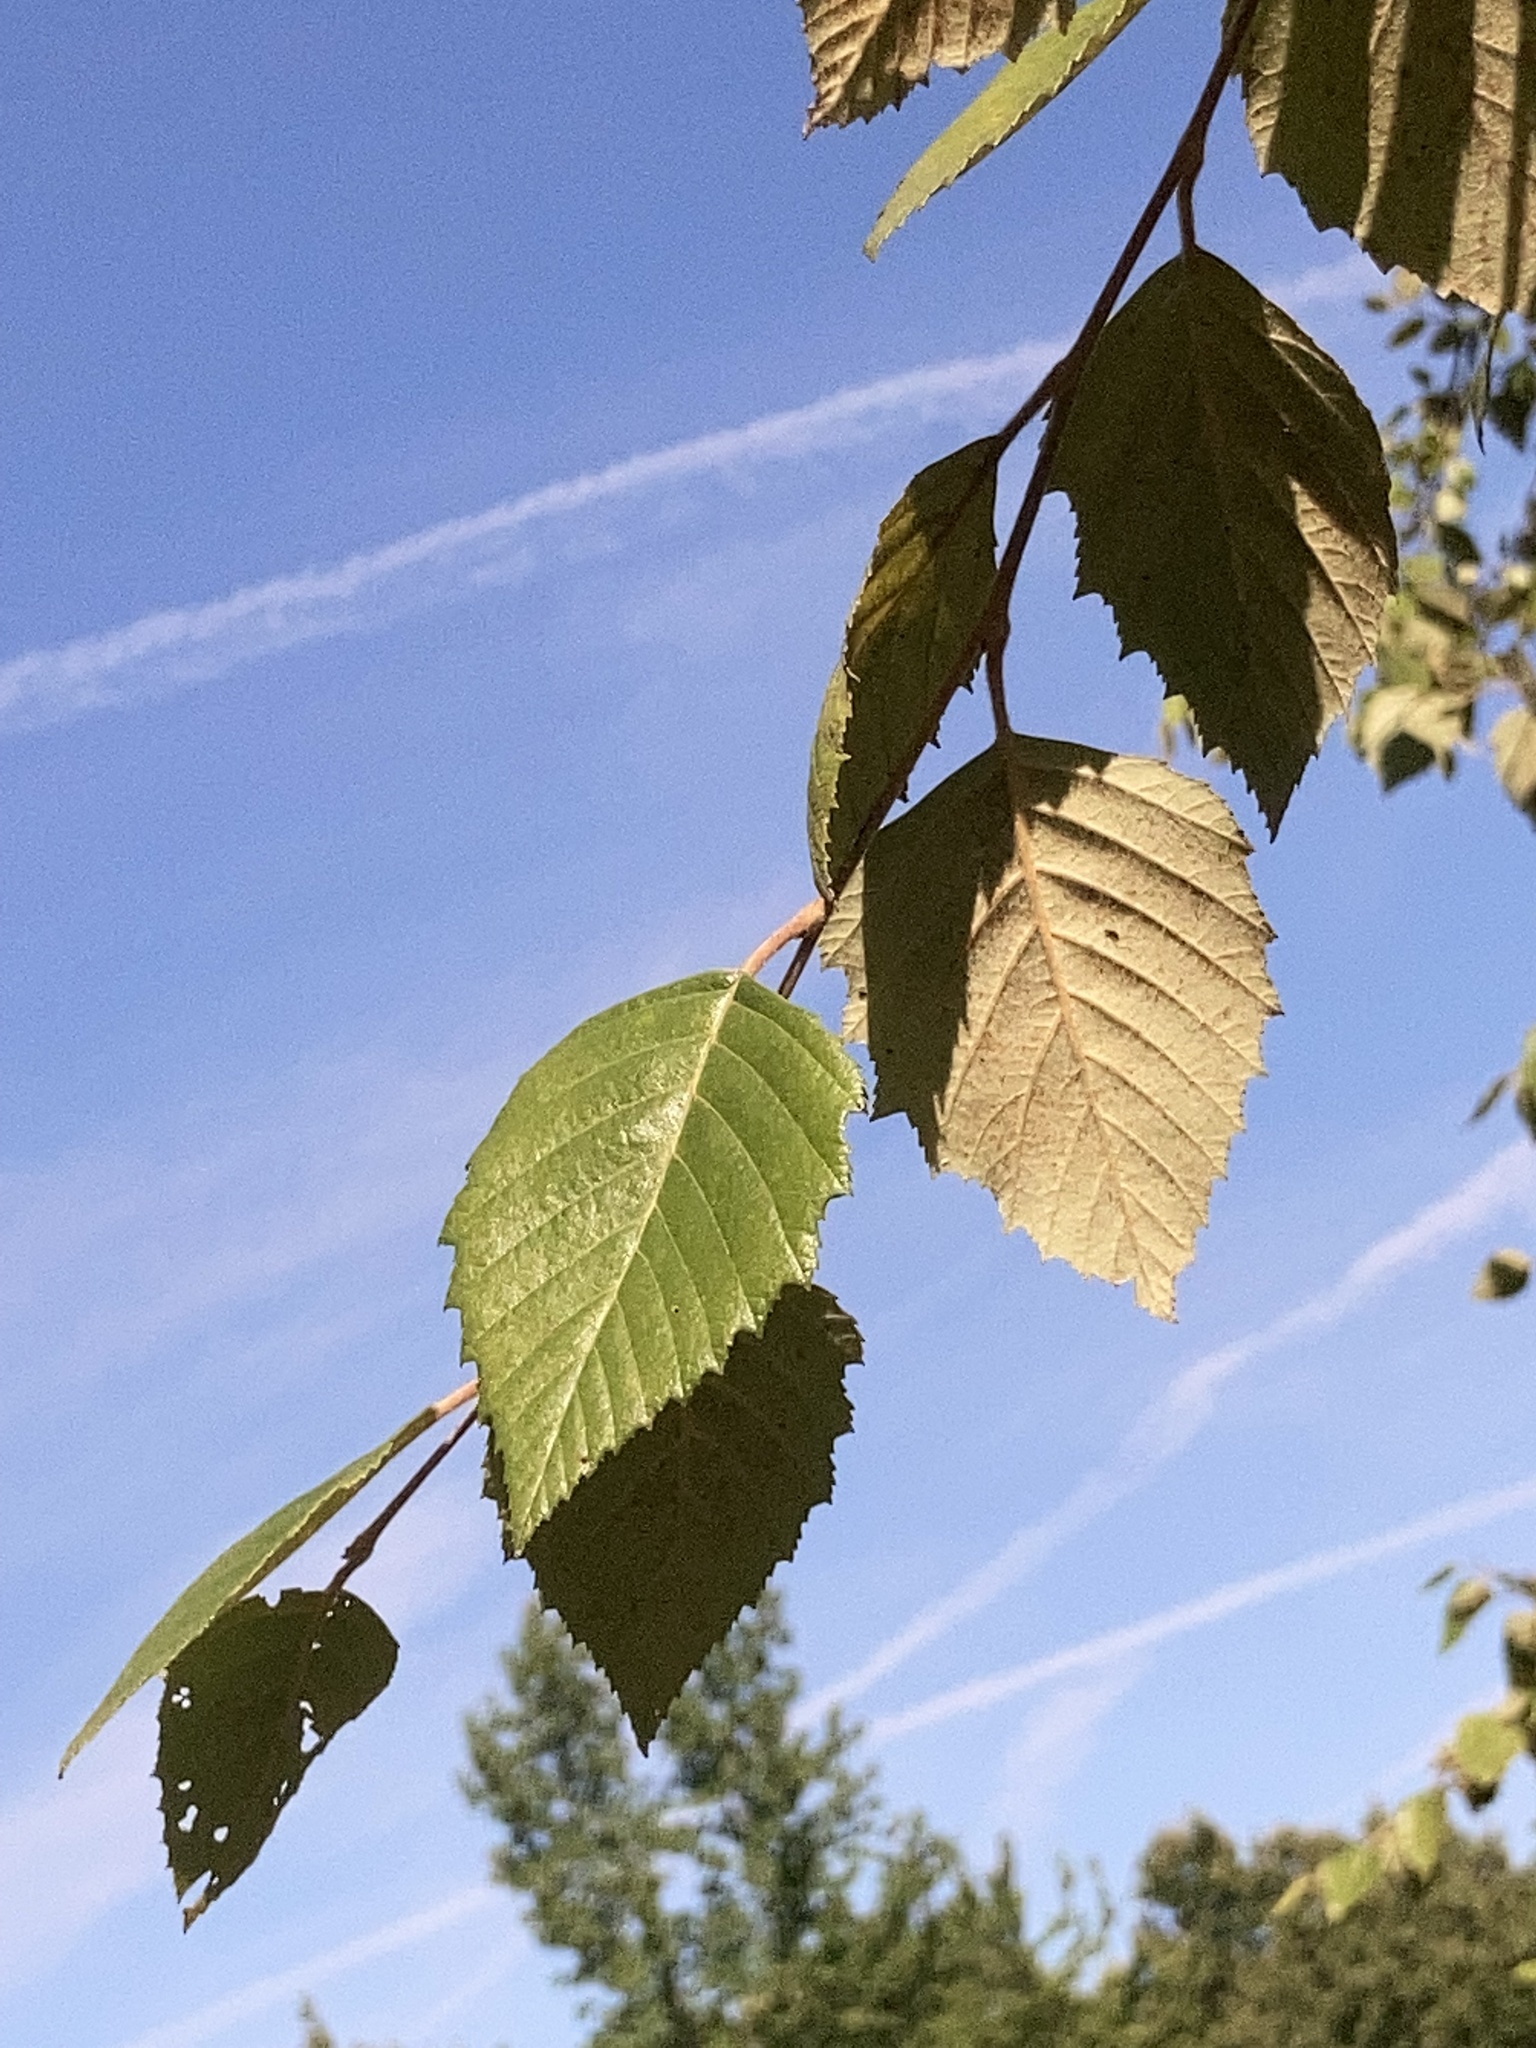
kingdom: Plantae
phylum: Tracheophyta
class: Magnoliopsida
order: Fagales
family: Betulaceae
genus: Betula
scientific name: Betula nigra
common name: Black birch
